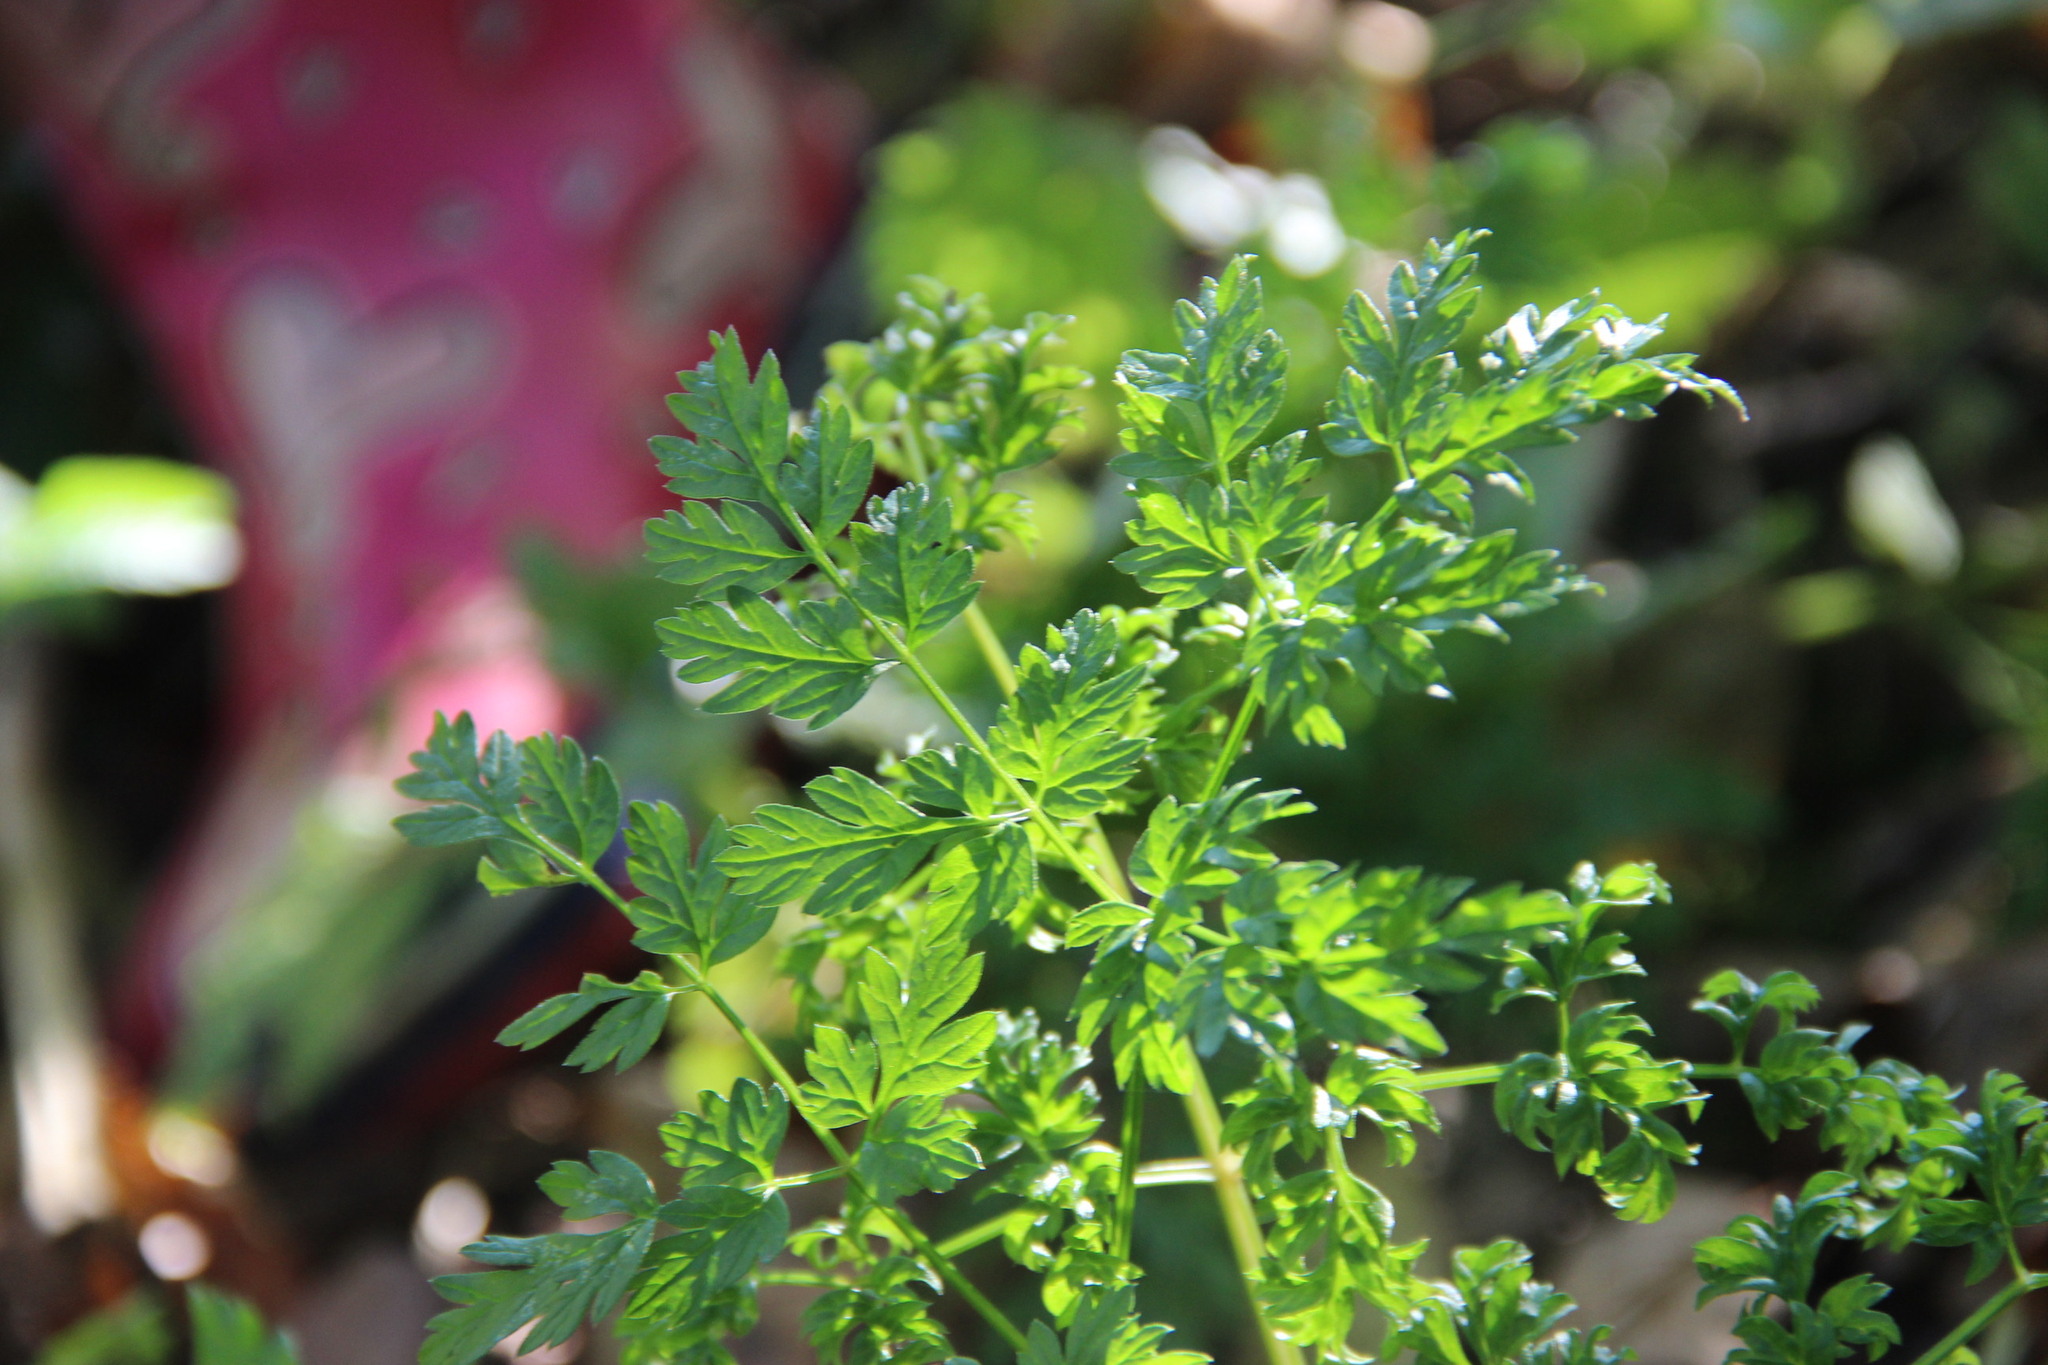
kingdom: Plantae
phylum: Tracheophyta
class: Magnoliopsida
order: Apiales
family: Apiaceae
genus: Conium
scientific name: Conium maculatum
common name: Hemlock
